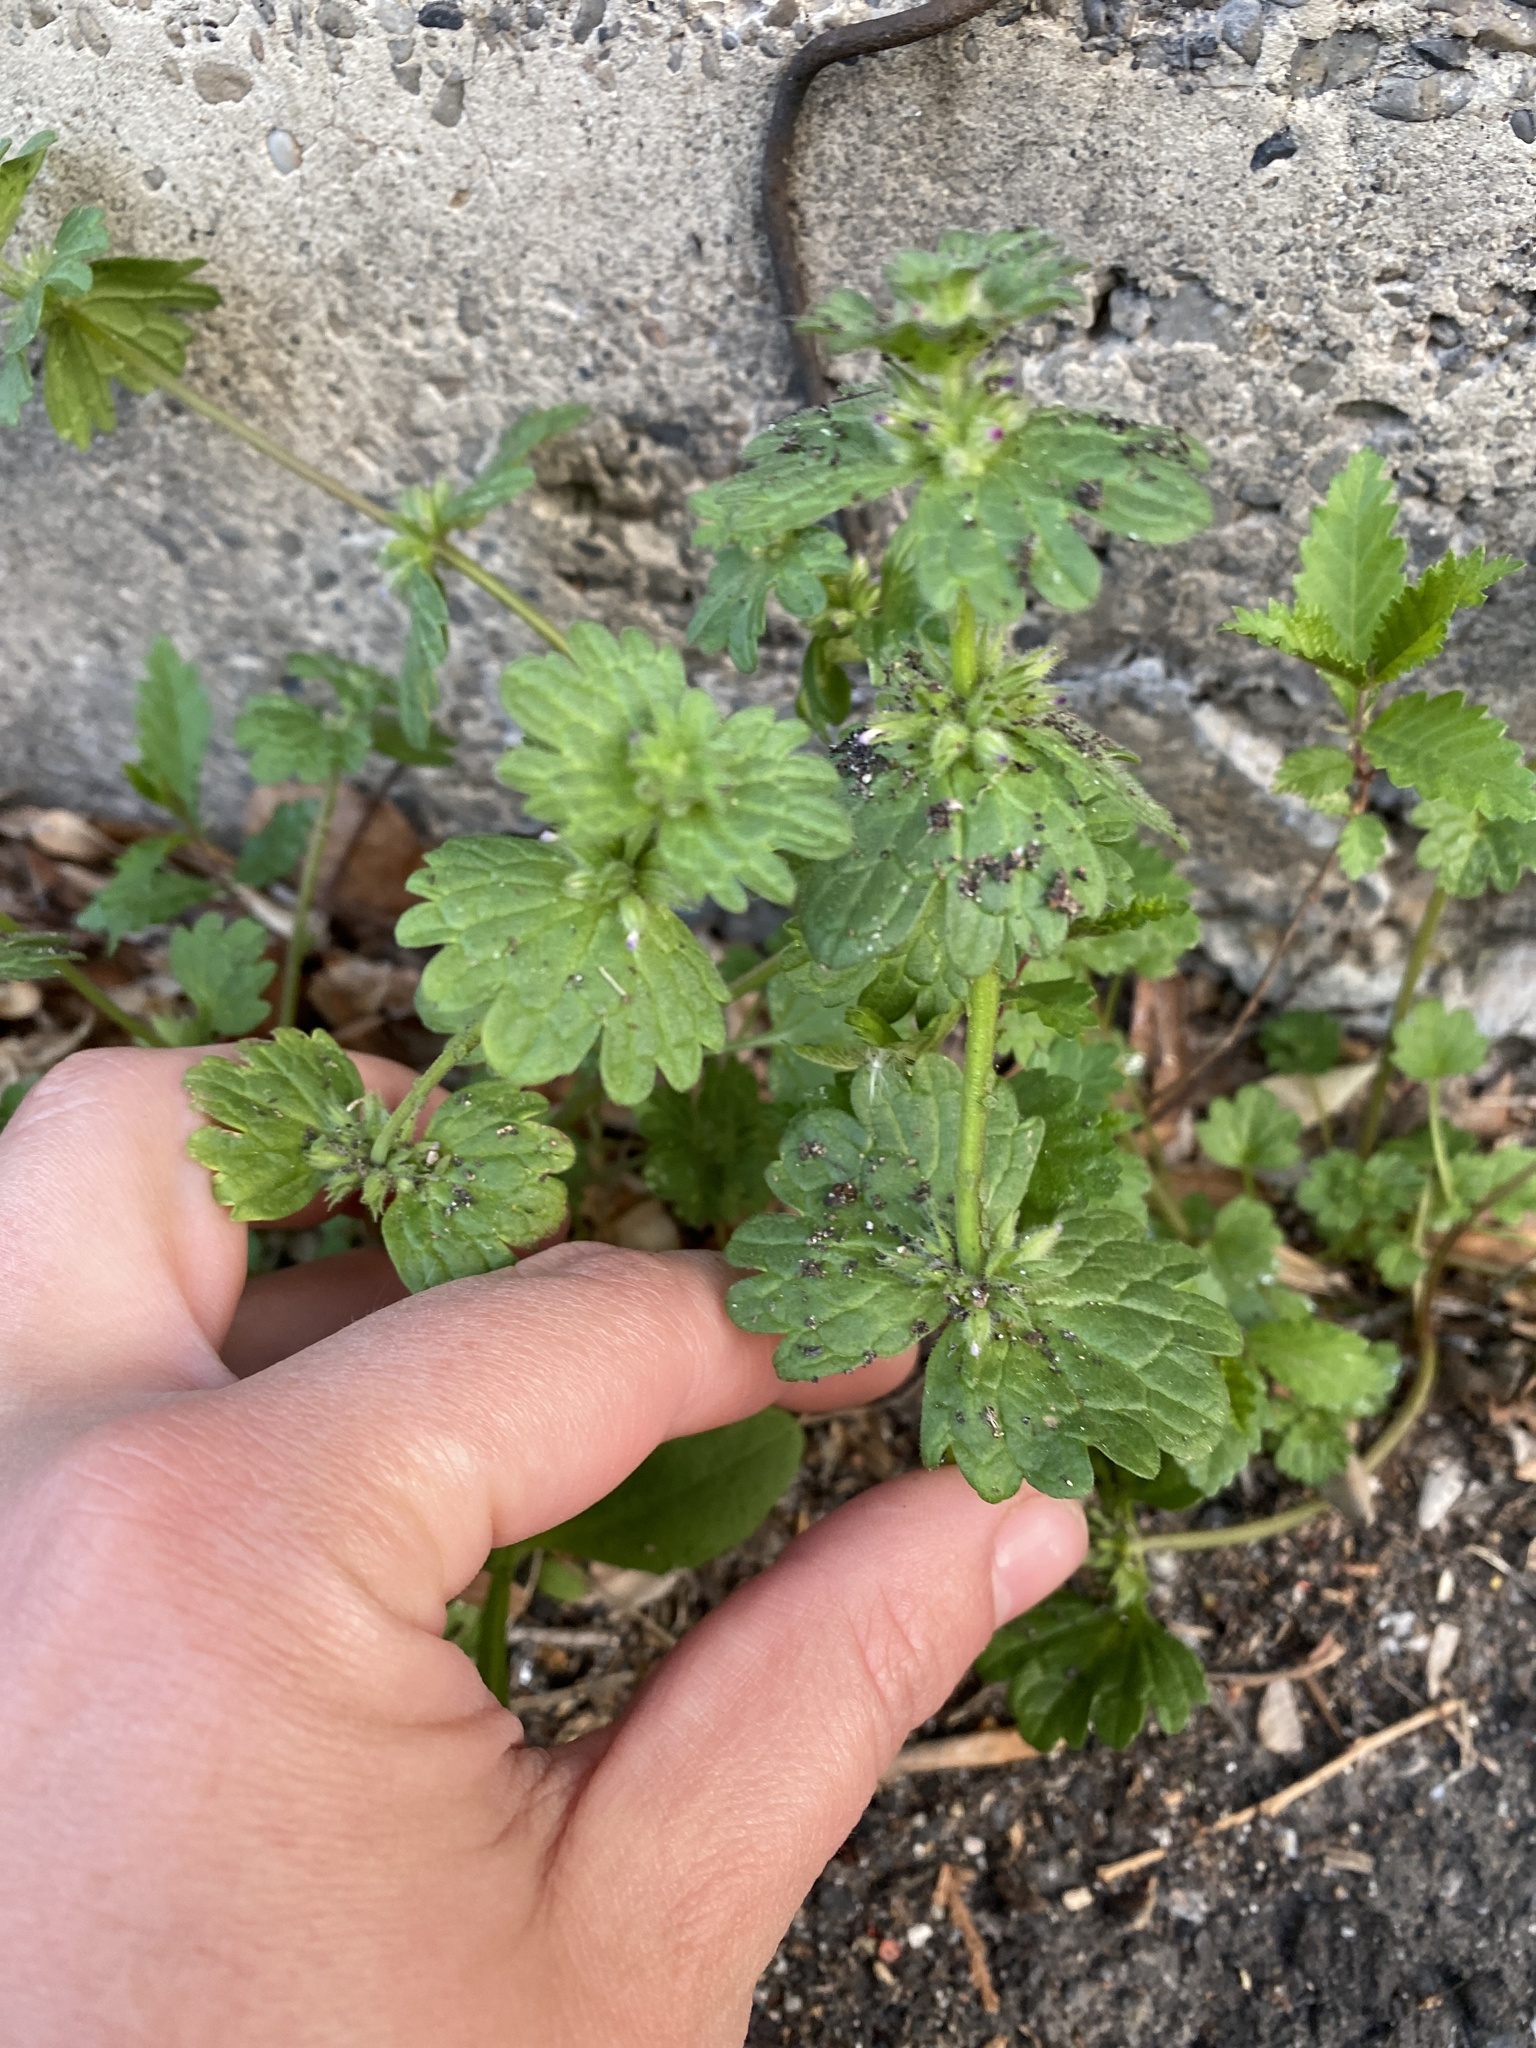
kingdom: Plantae
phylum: Tracheophyta
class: Magnoliopsida
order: Lamiales
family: Lamiaceae
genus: Lamium
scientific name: Lamium amplexicaule
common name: Henbit dead-nettle
